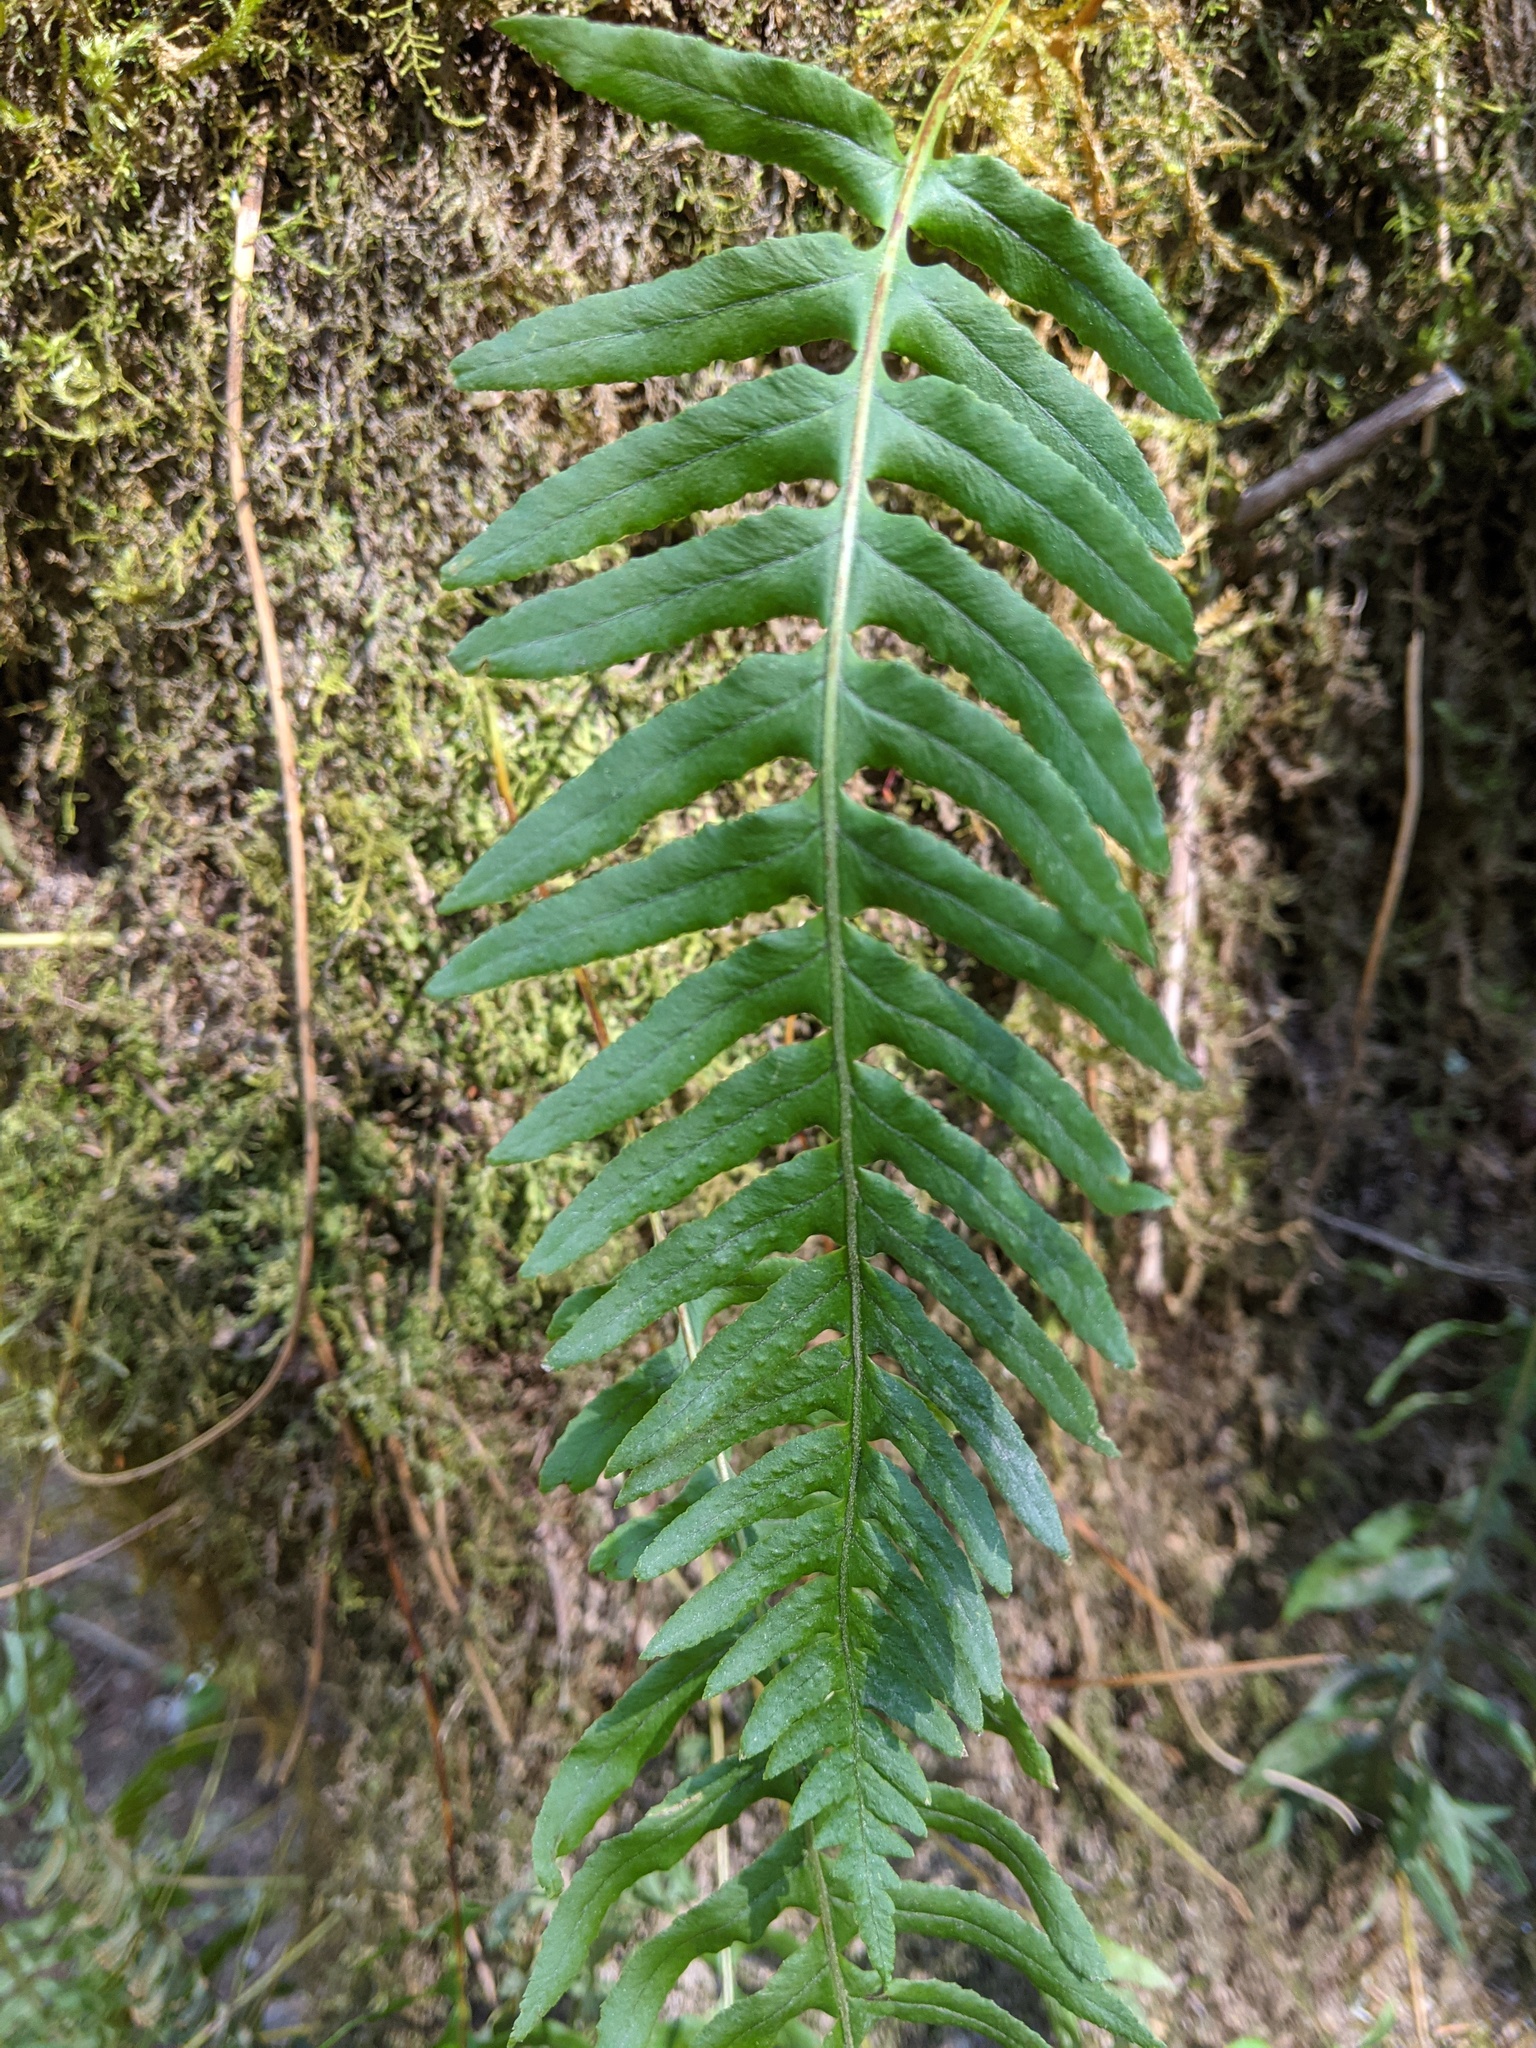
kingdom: Plantae
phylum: Tracheophyta
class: Polypodiopsida
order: Polypodiales
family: Polypodiaceae
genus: Polypodium
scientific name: Polypodium glycyrrhiza
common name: Licorice fern
